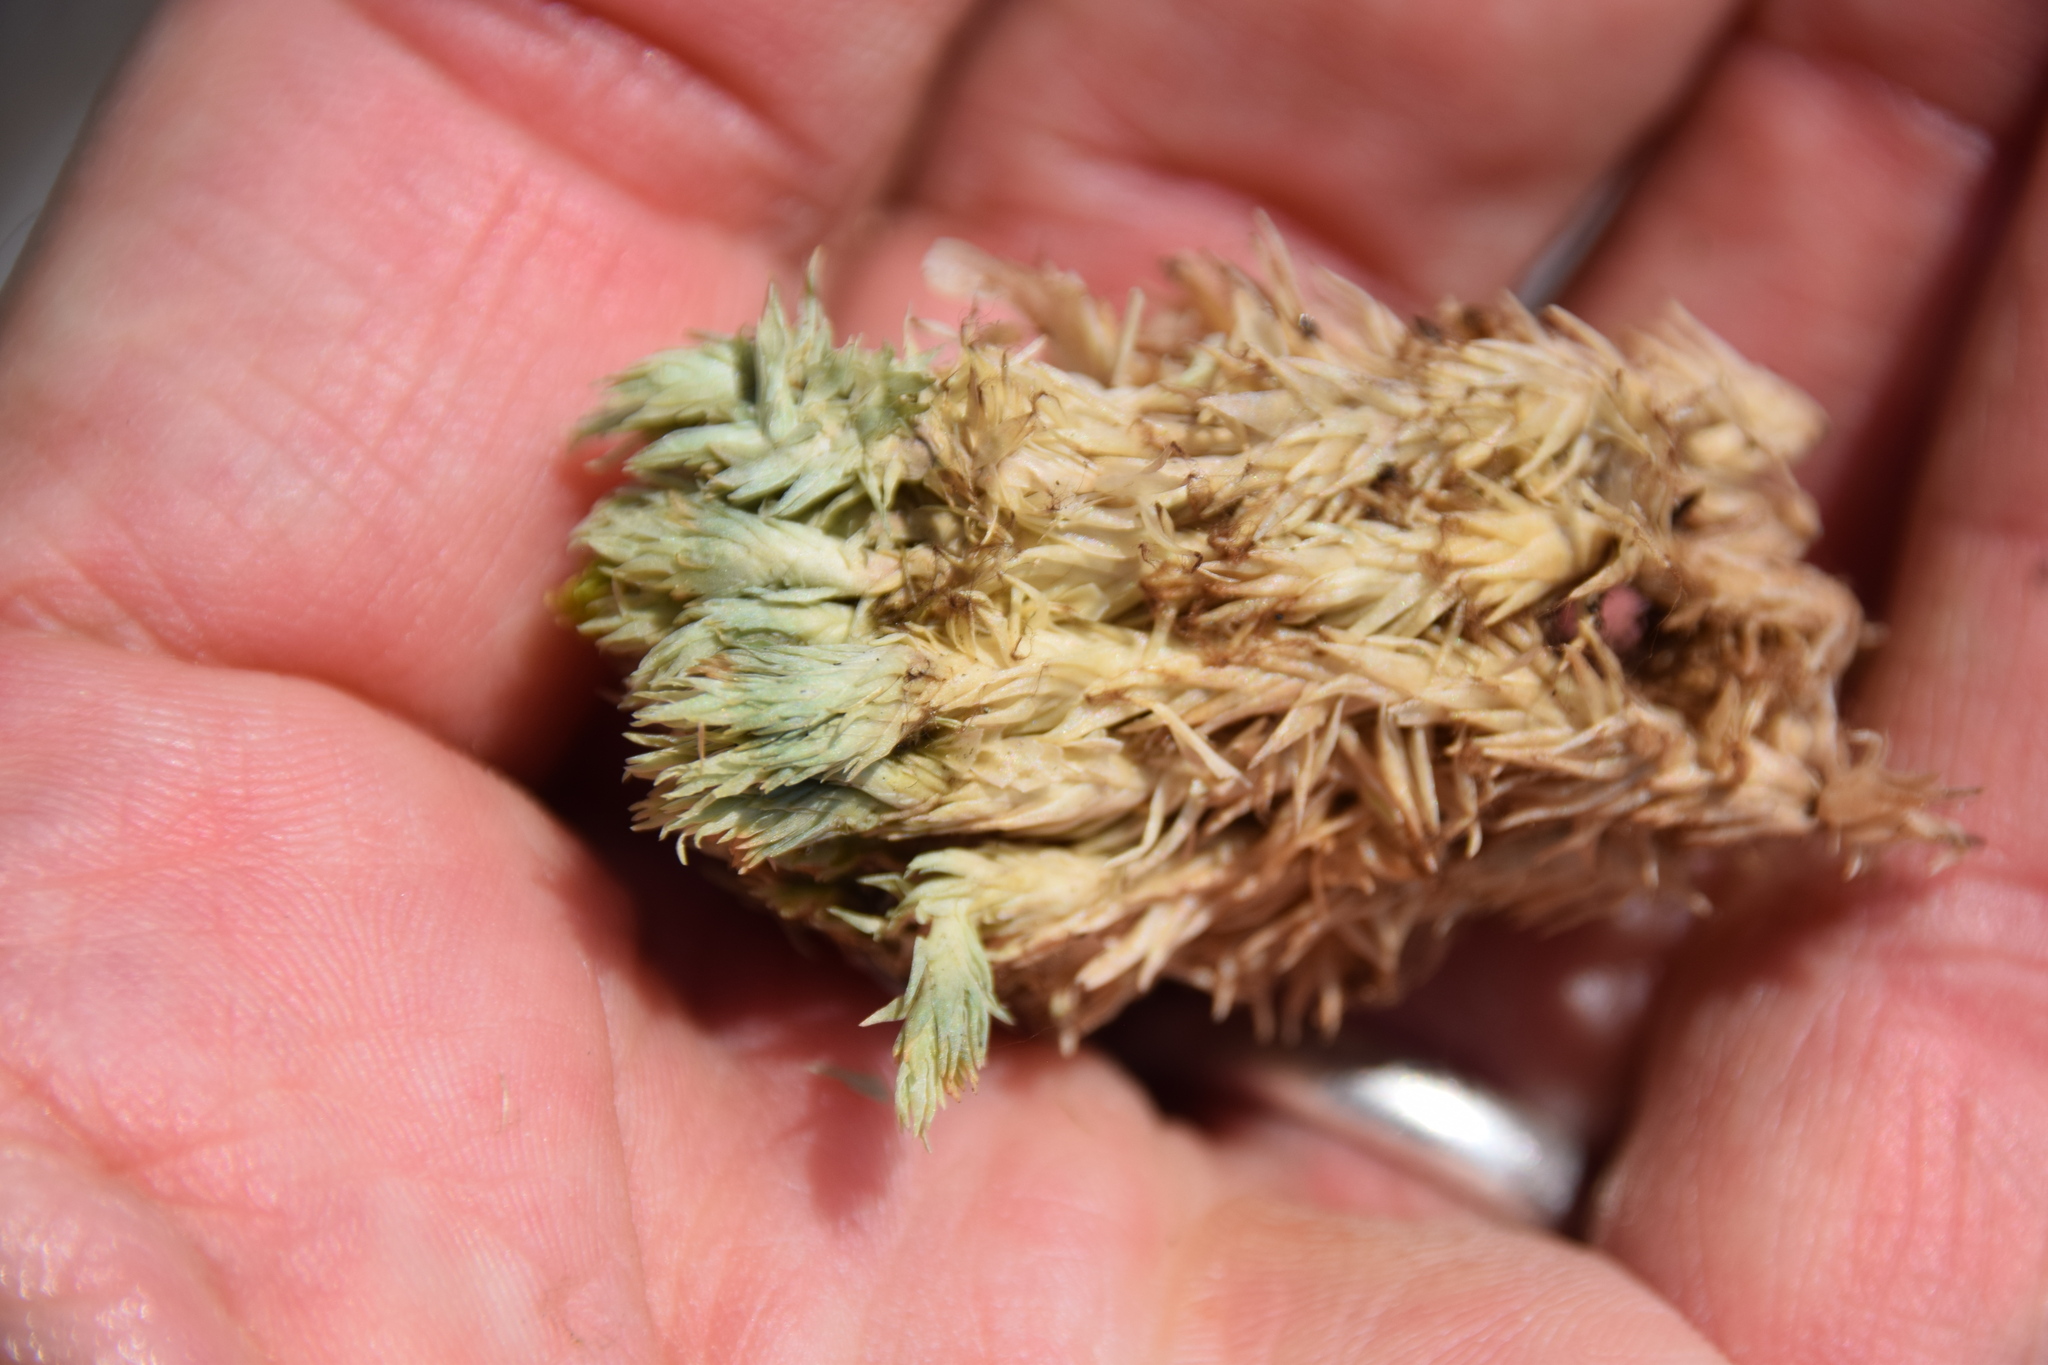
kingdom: Plantae
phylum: Bryophyta
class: Bryopsida
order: Dicranales
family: Leucobryaceae
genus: Leucobryum
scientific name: Leucobryum glaucum
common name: Large white-moss
